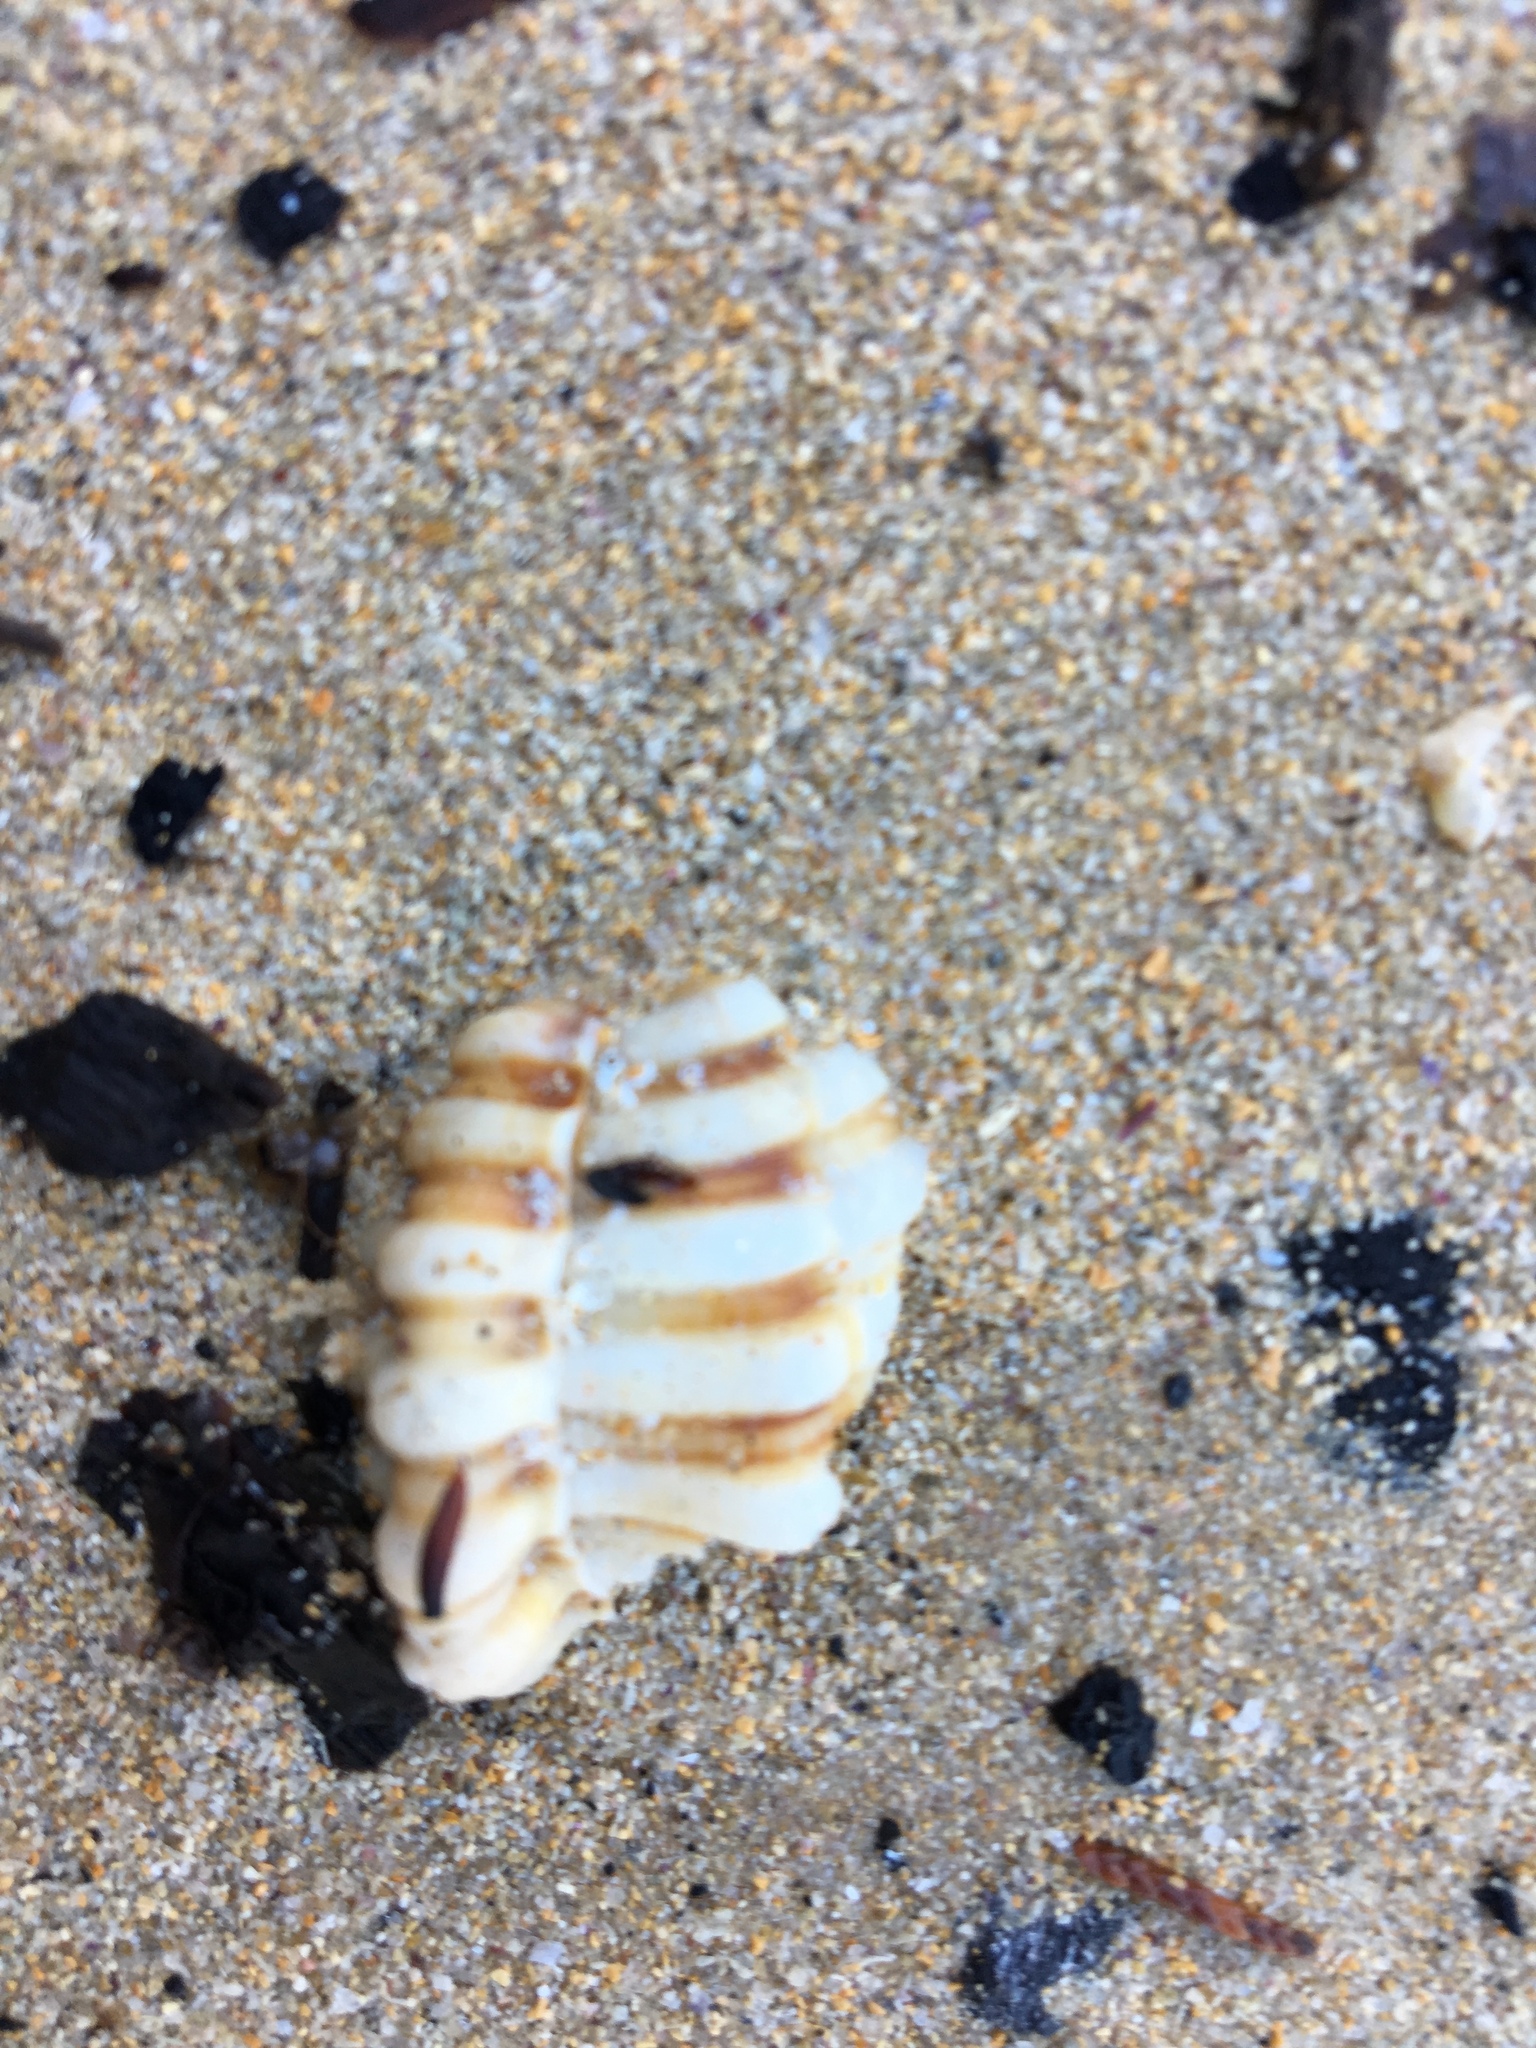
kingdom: Animalia
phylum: Mollusca
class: Gastropoda
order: Littorinimorpha
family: Cymatiidae
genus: Cabestana
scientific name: Cabestana spengleri
